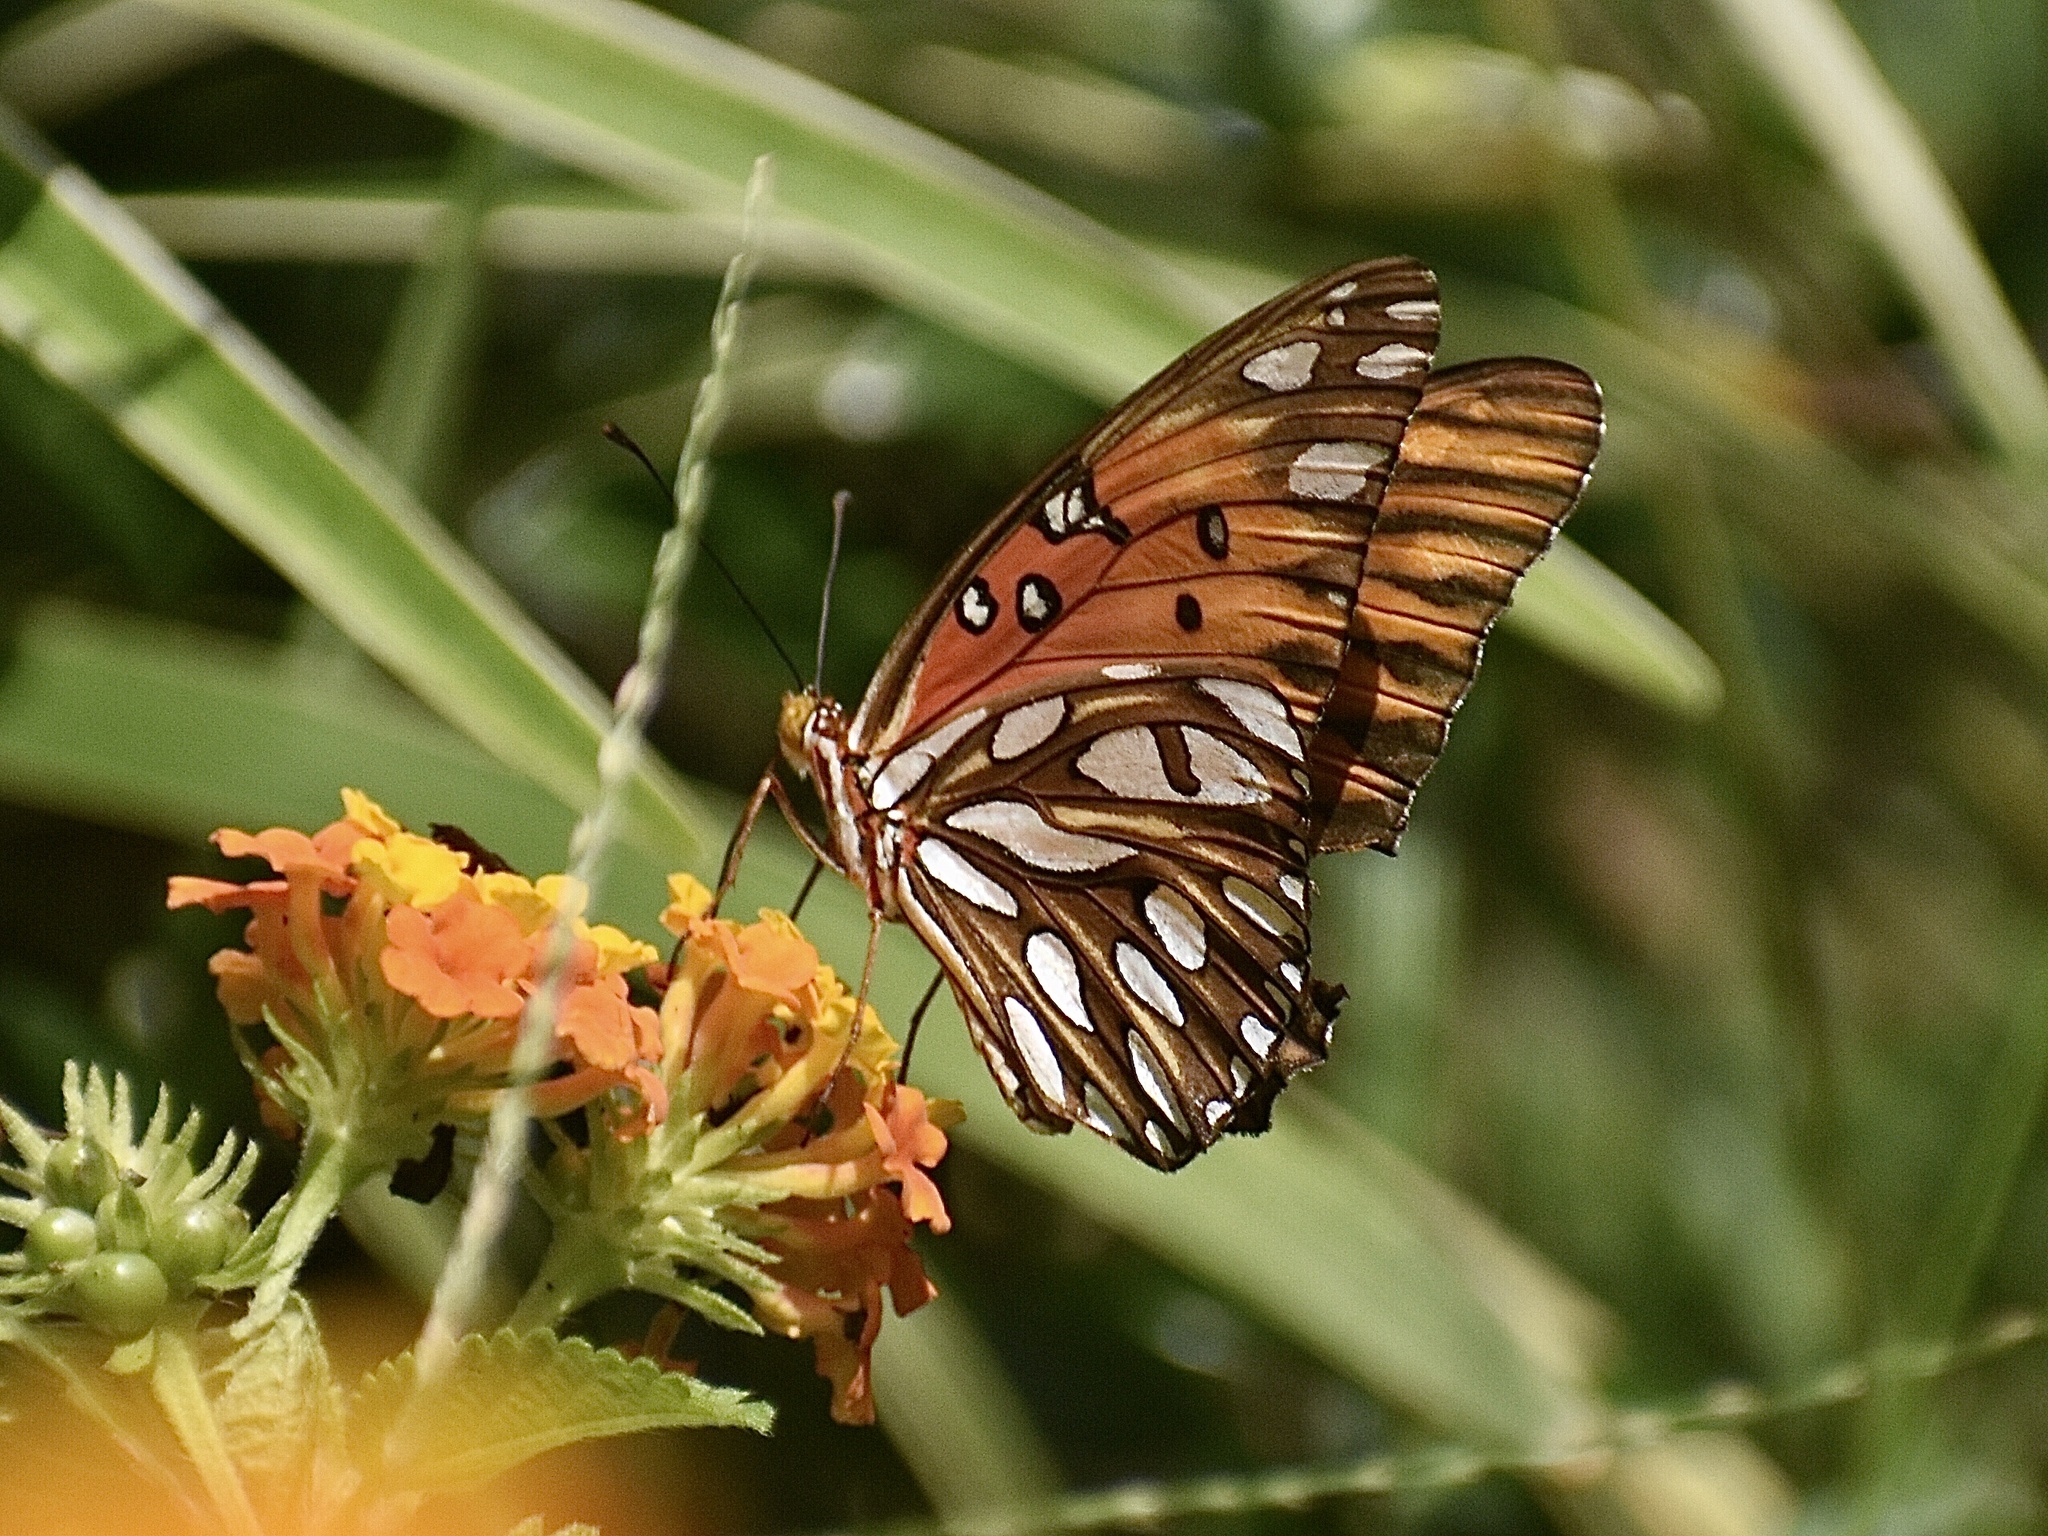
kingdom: Animalia
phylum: Arthropoda
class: Insecta
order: Lepidoptera
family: Nymphalidae
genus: Dione
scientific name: Dione vanillae
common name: Gulf fritillary
